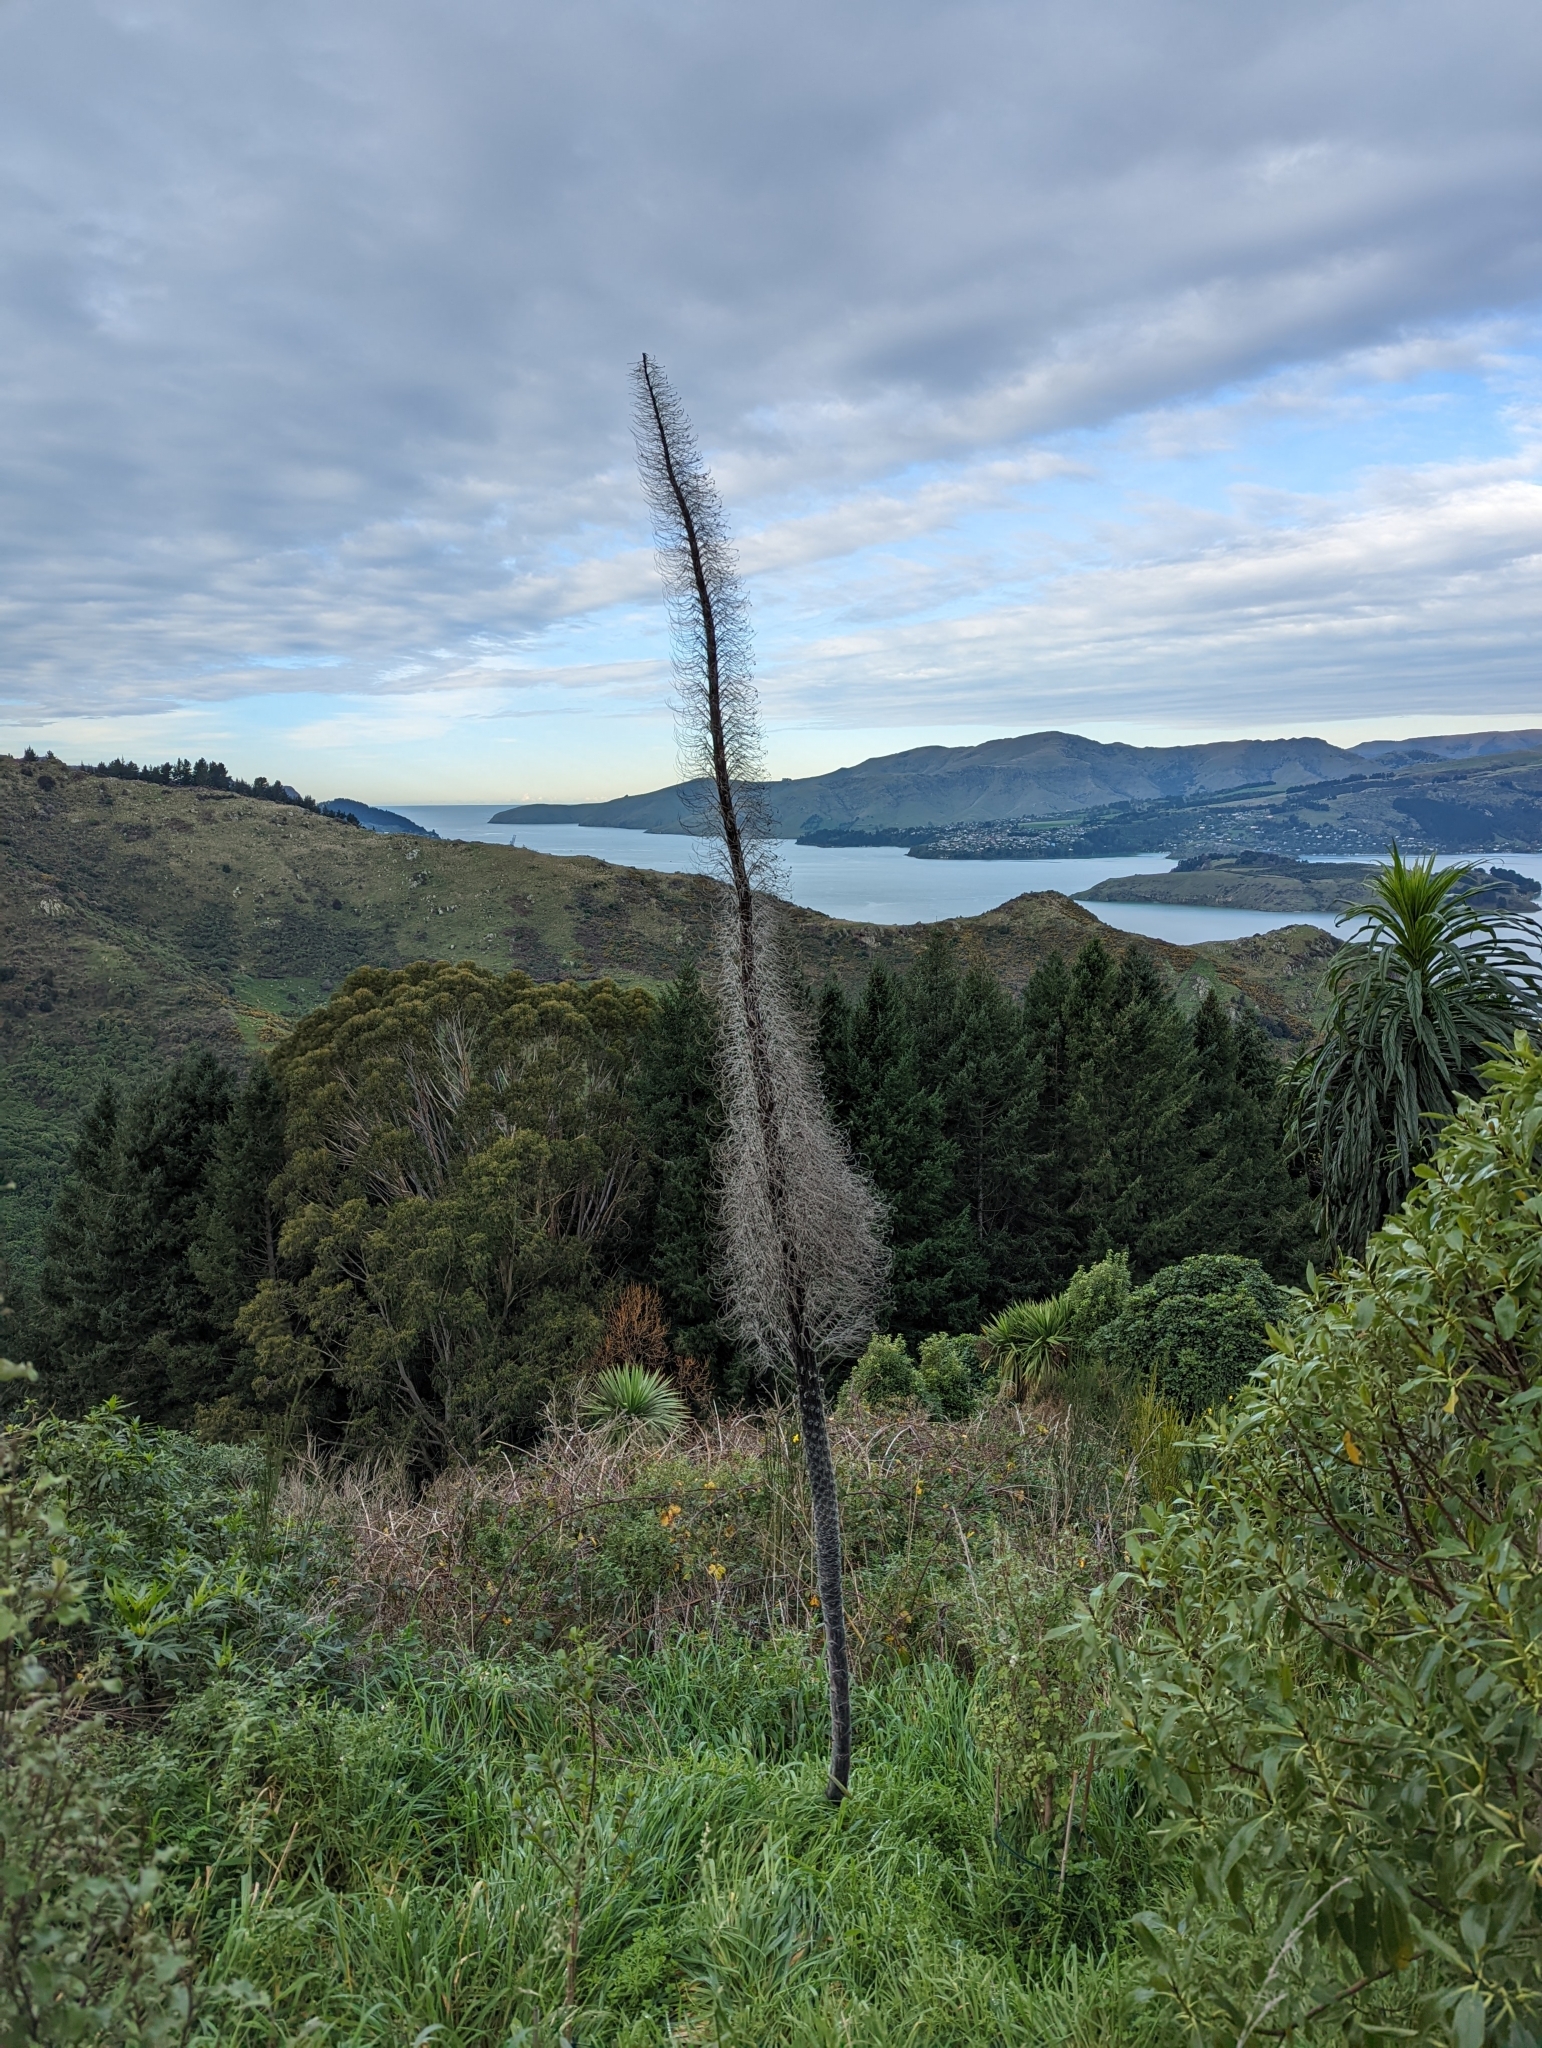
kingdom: Plantae
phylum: Tracheophyta
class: Magnoliopsida
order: Boraginales
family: Boraginaceae
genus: Echium
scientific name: Echium pininana
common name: Giant viper's-bugloss
